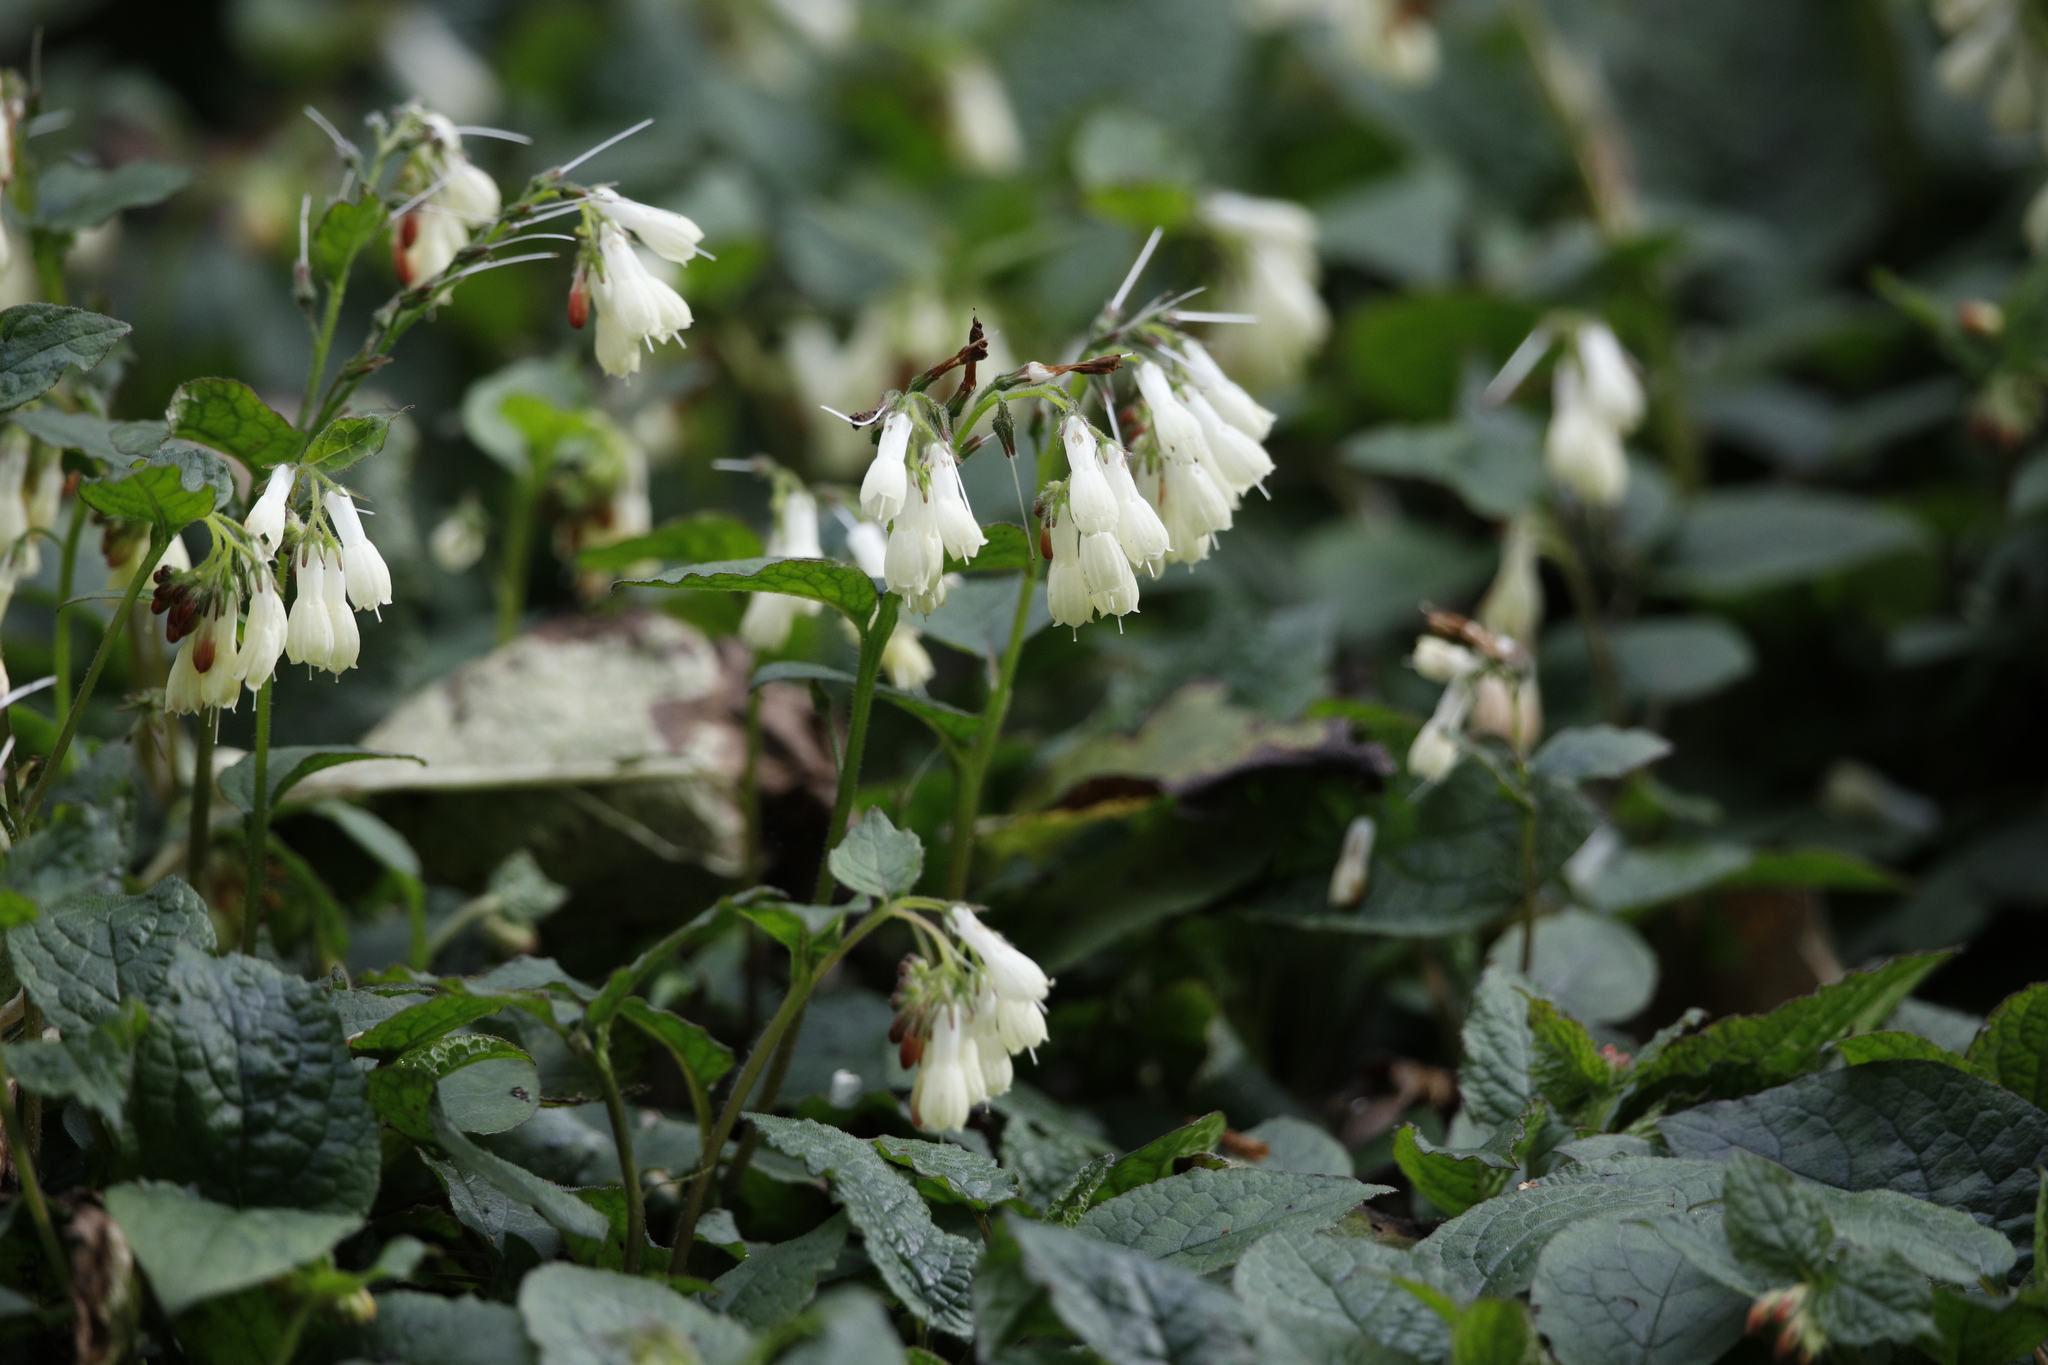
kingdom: Plantae
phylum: Tracheophyta
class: Magnoliopsida
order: Boraginales
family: Boraginaceae
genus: Symphytum
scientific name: Symphytum grandiflorum
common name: Creeping comfrey
